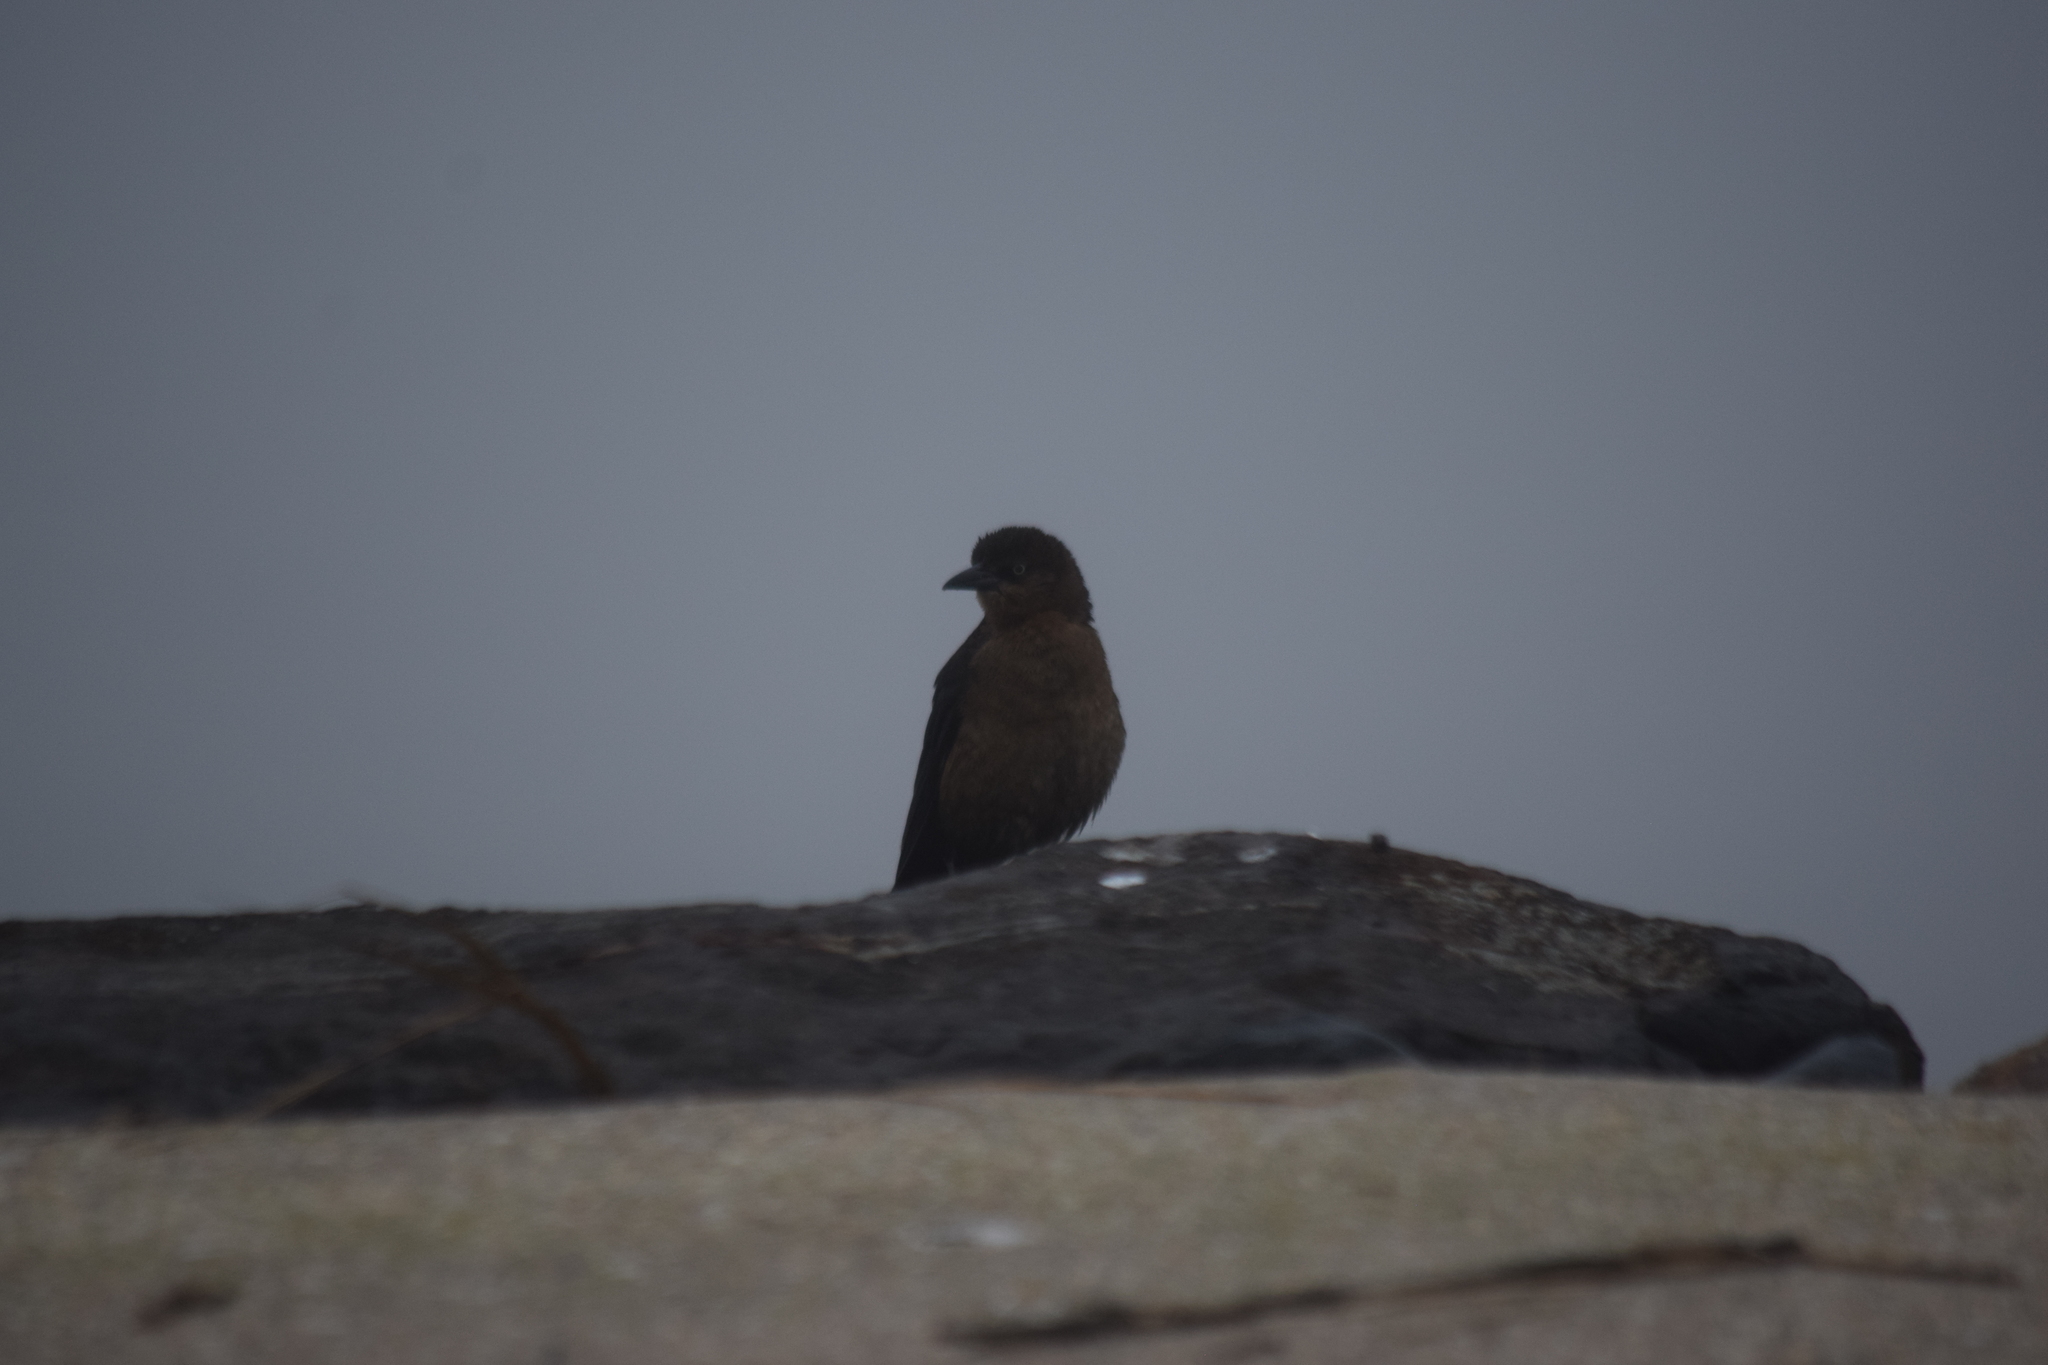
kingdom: Animalia
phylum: Chordata
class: Aves
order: Passeriformes
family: Icteridae
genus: Quiscalus
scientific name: Quiscalus major
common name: Boat-tailed grackle
